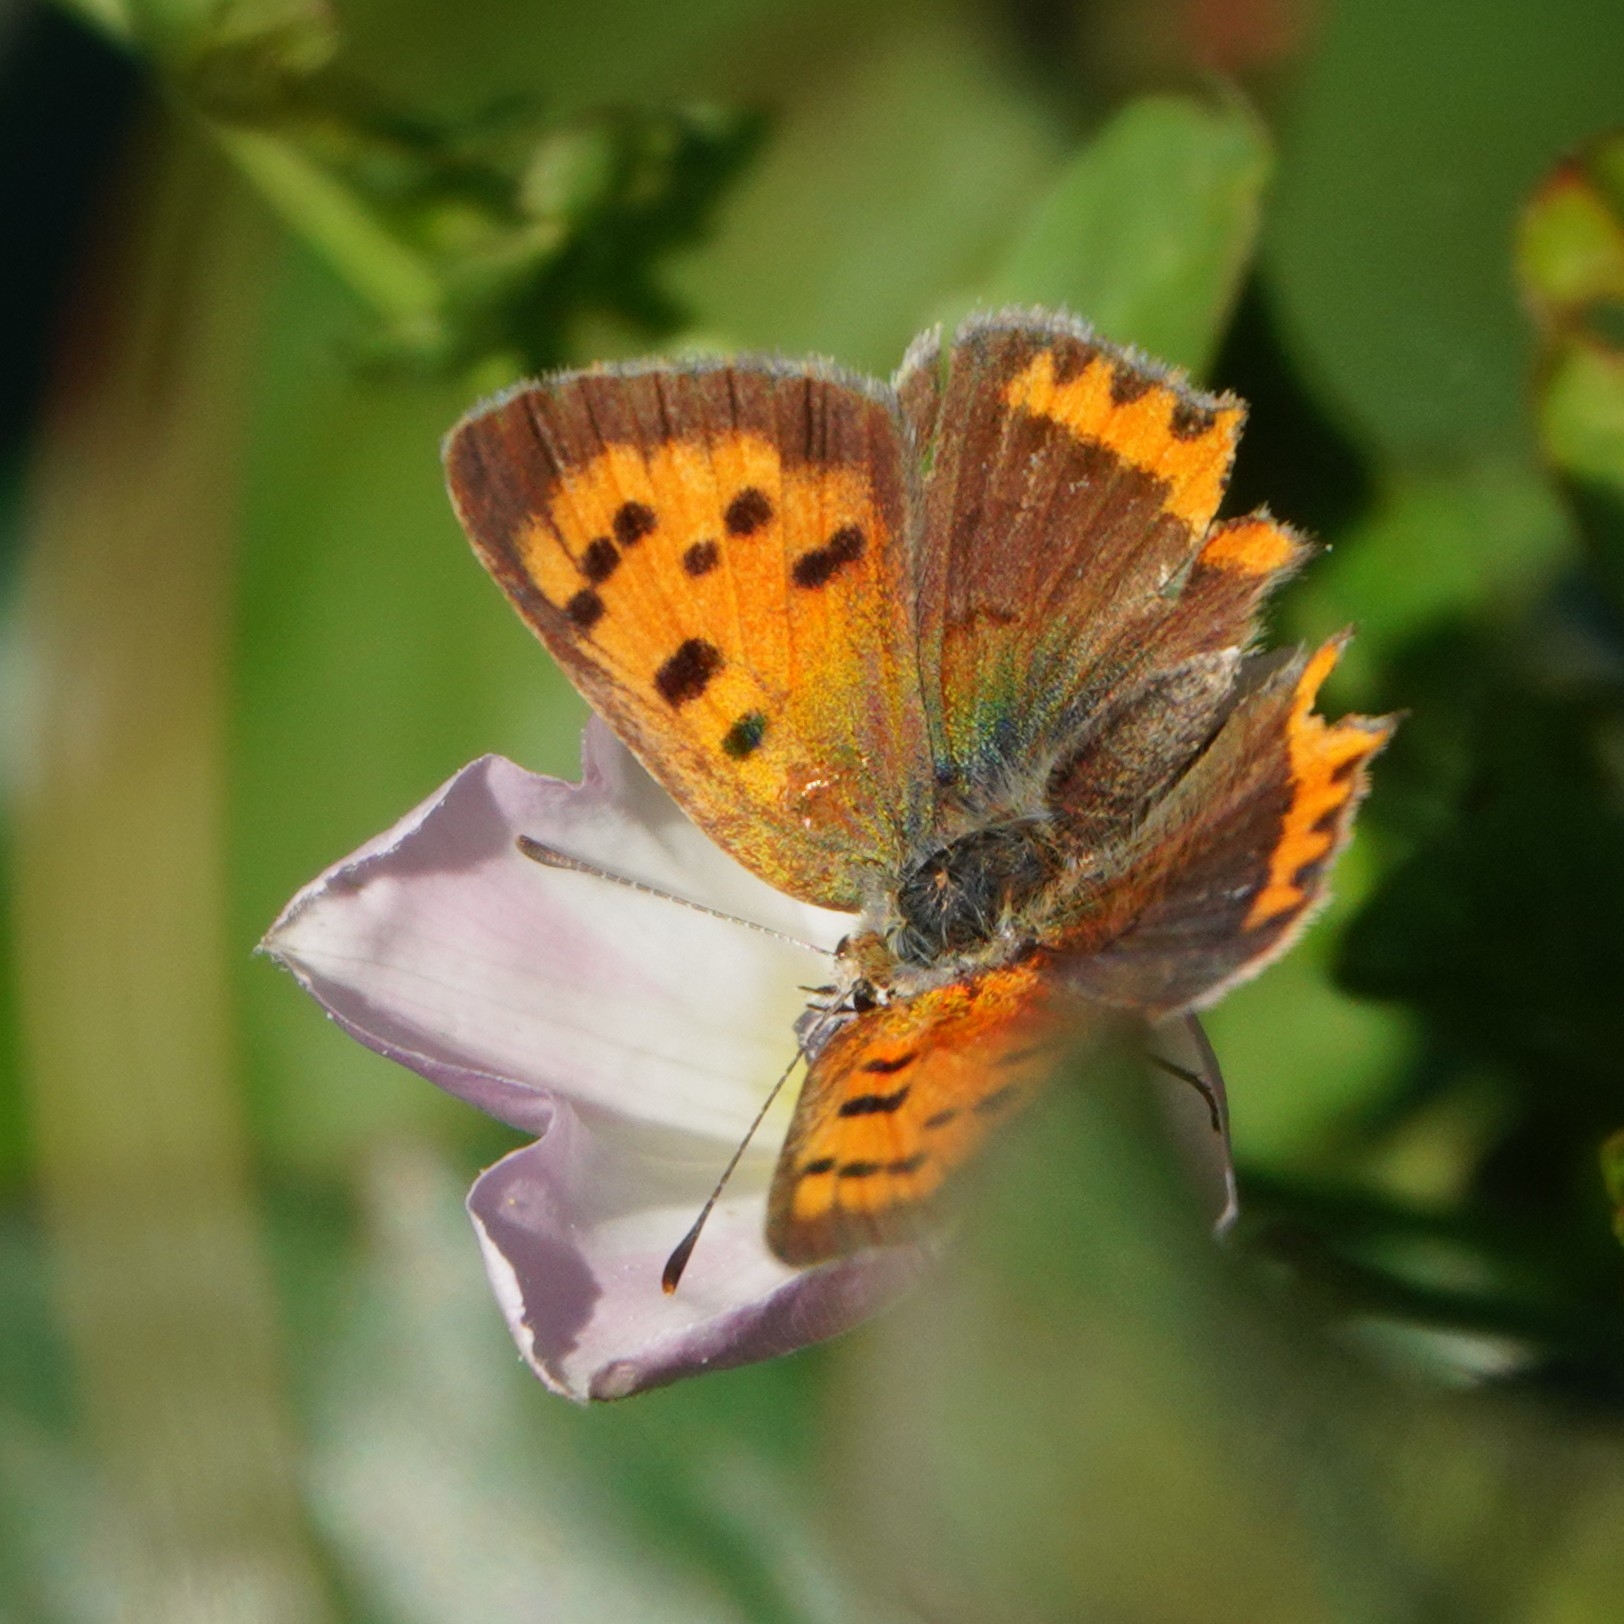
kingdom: Animalia
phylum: Arthropoda
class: Insecta
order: Lepidoptera
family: Lycaenidae
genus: Lycaena
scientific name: Lycaena phlaeas
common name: Small copper
